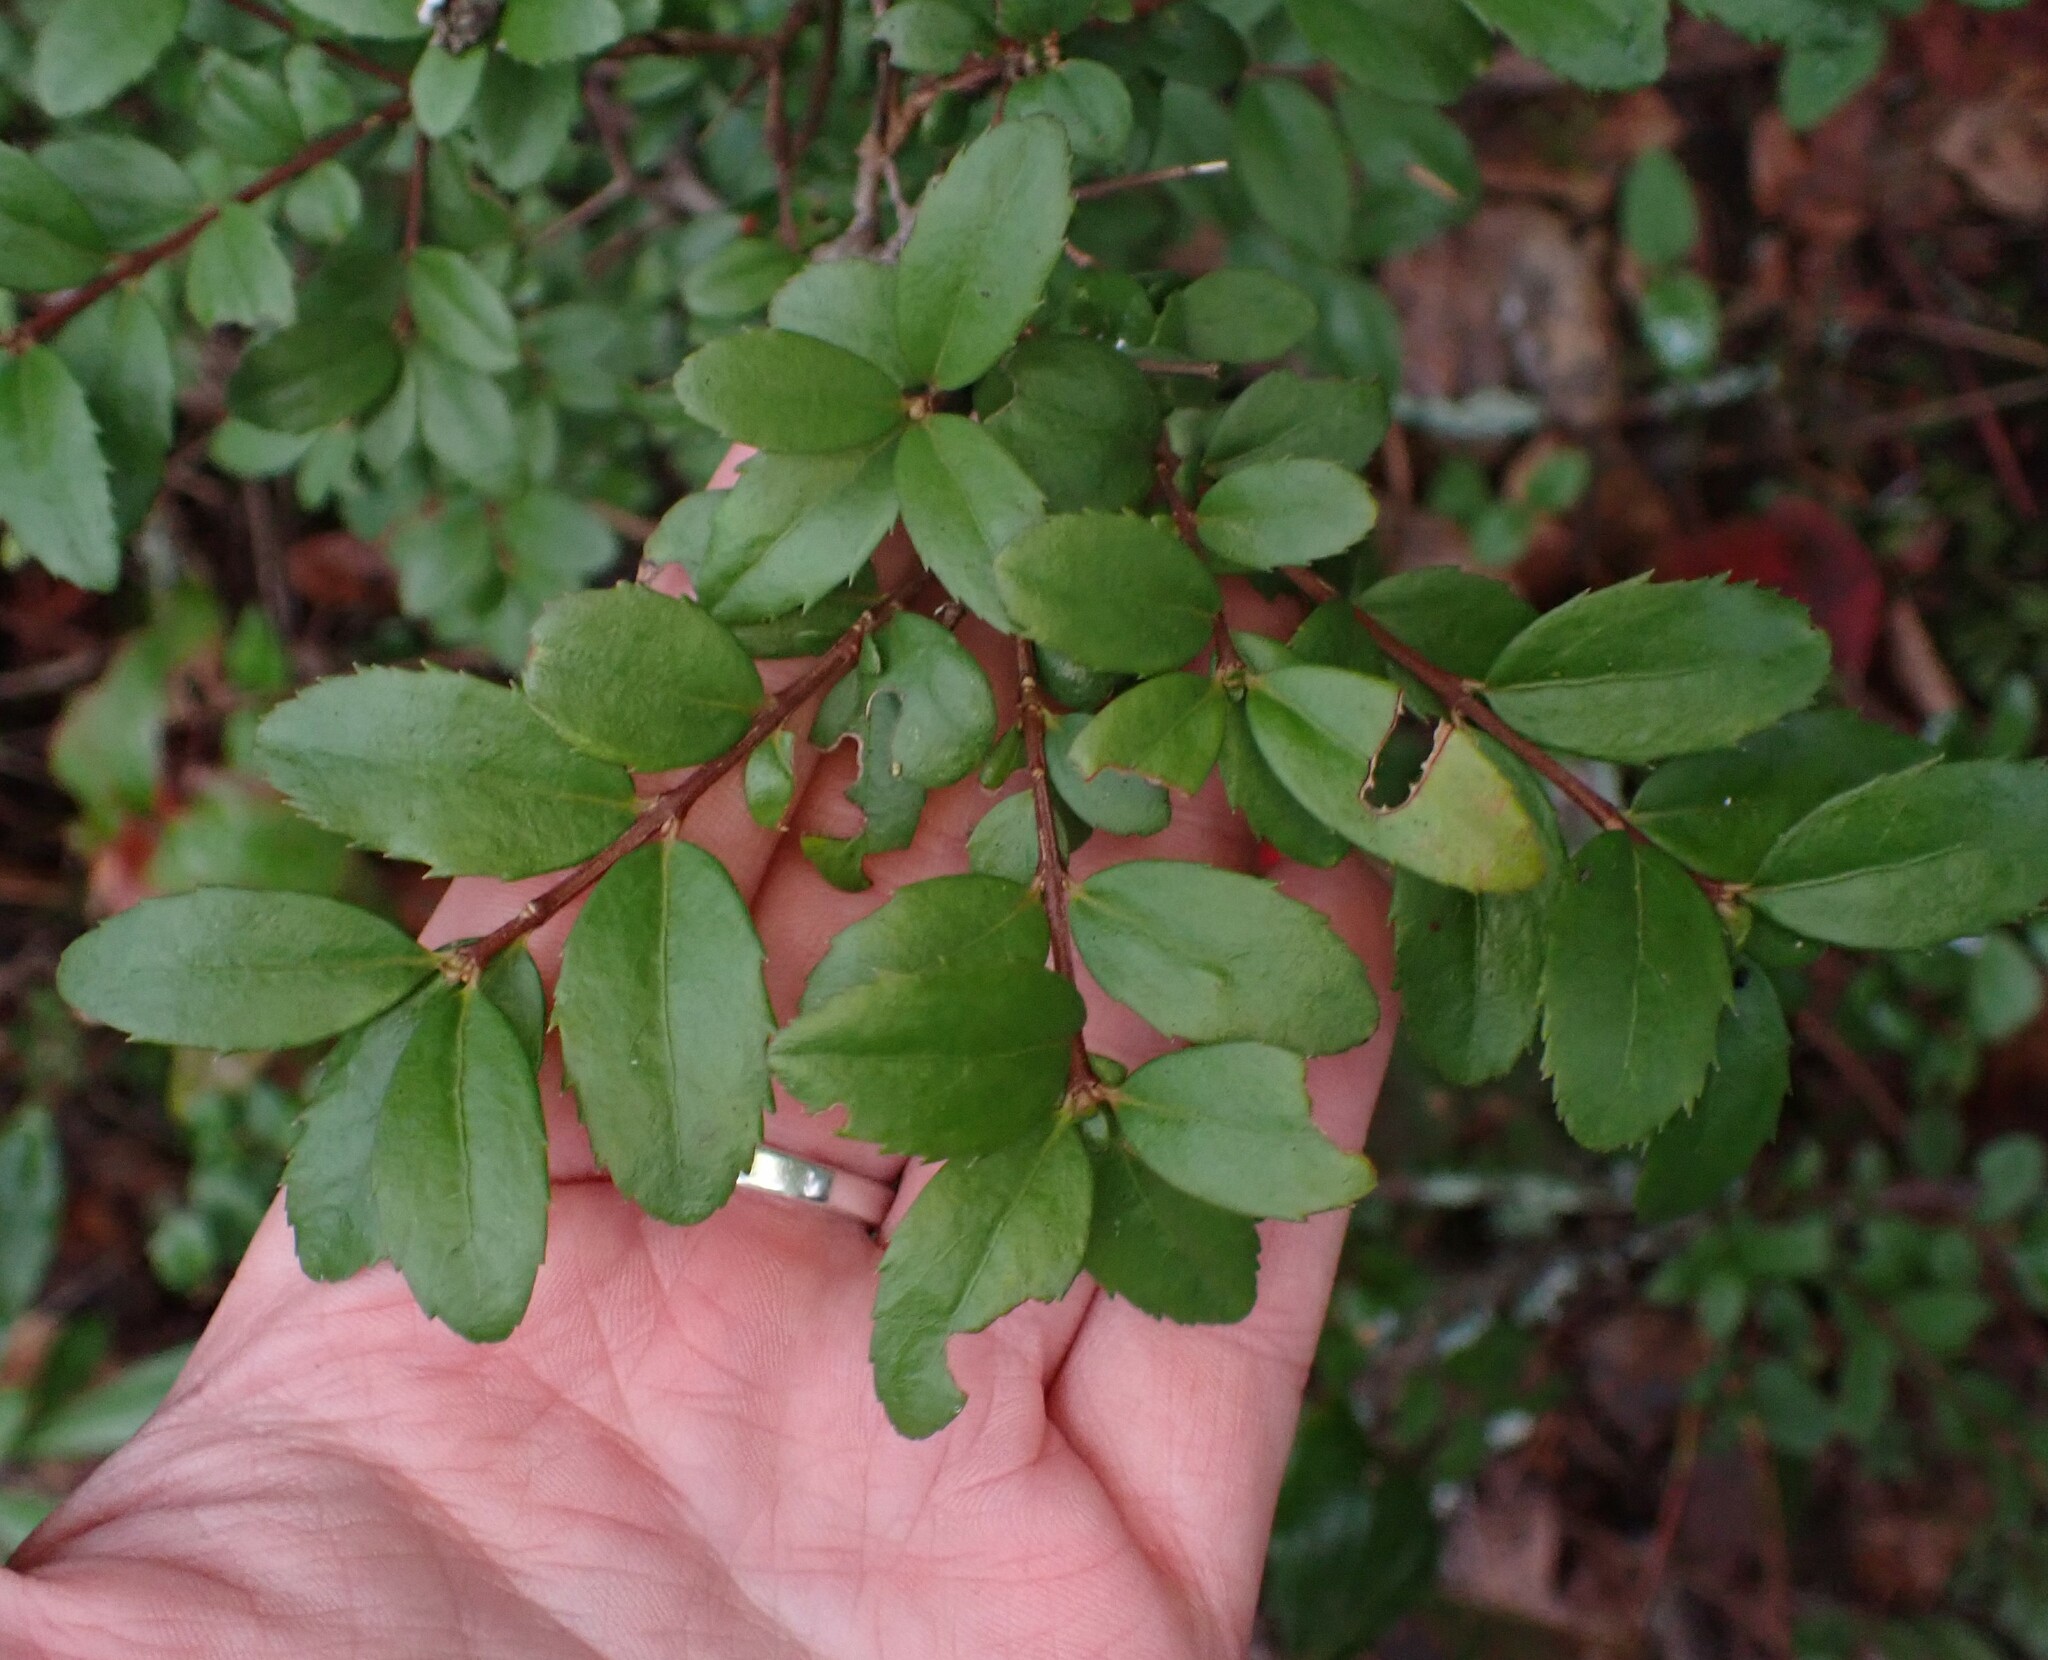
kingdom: Plantae
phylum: Tracheophyta
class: Magnoliopsida
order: Celastrales
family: Celastraceae
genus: Paxistima
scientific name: Paxistima myrsinites
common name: Mountain-lover
